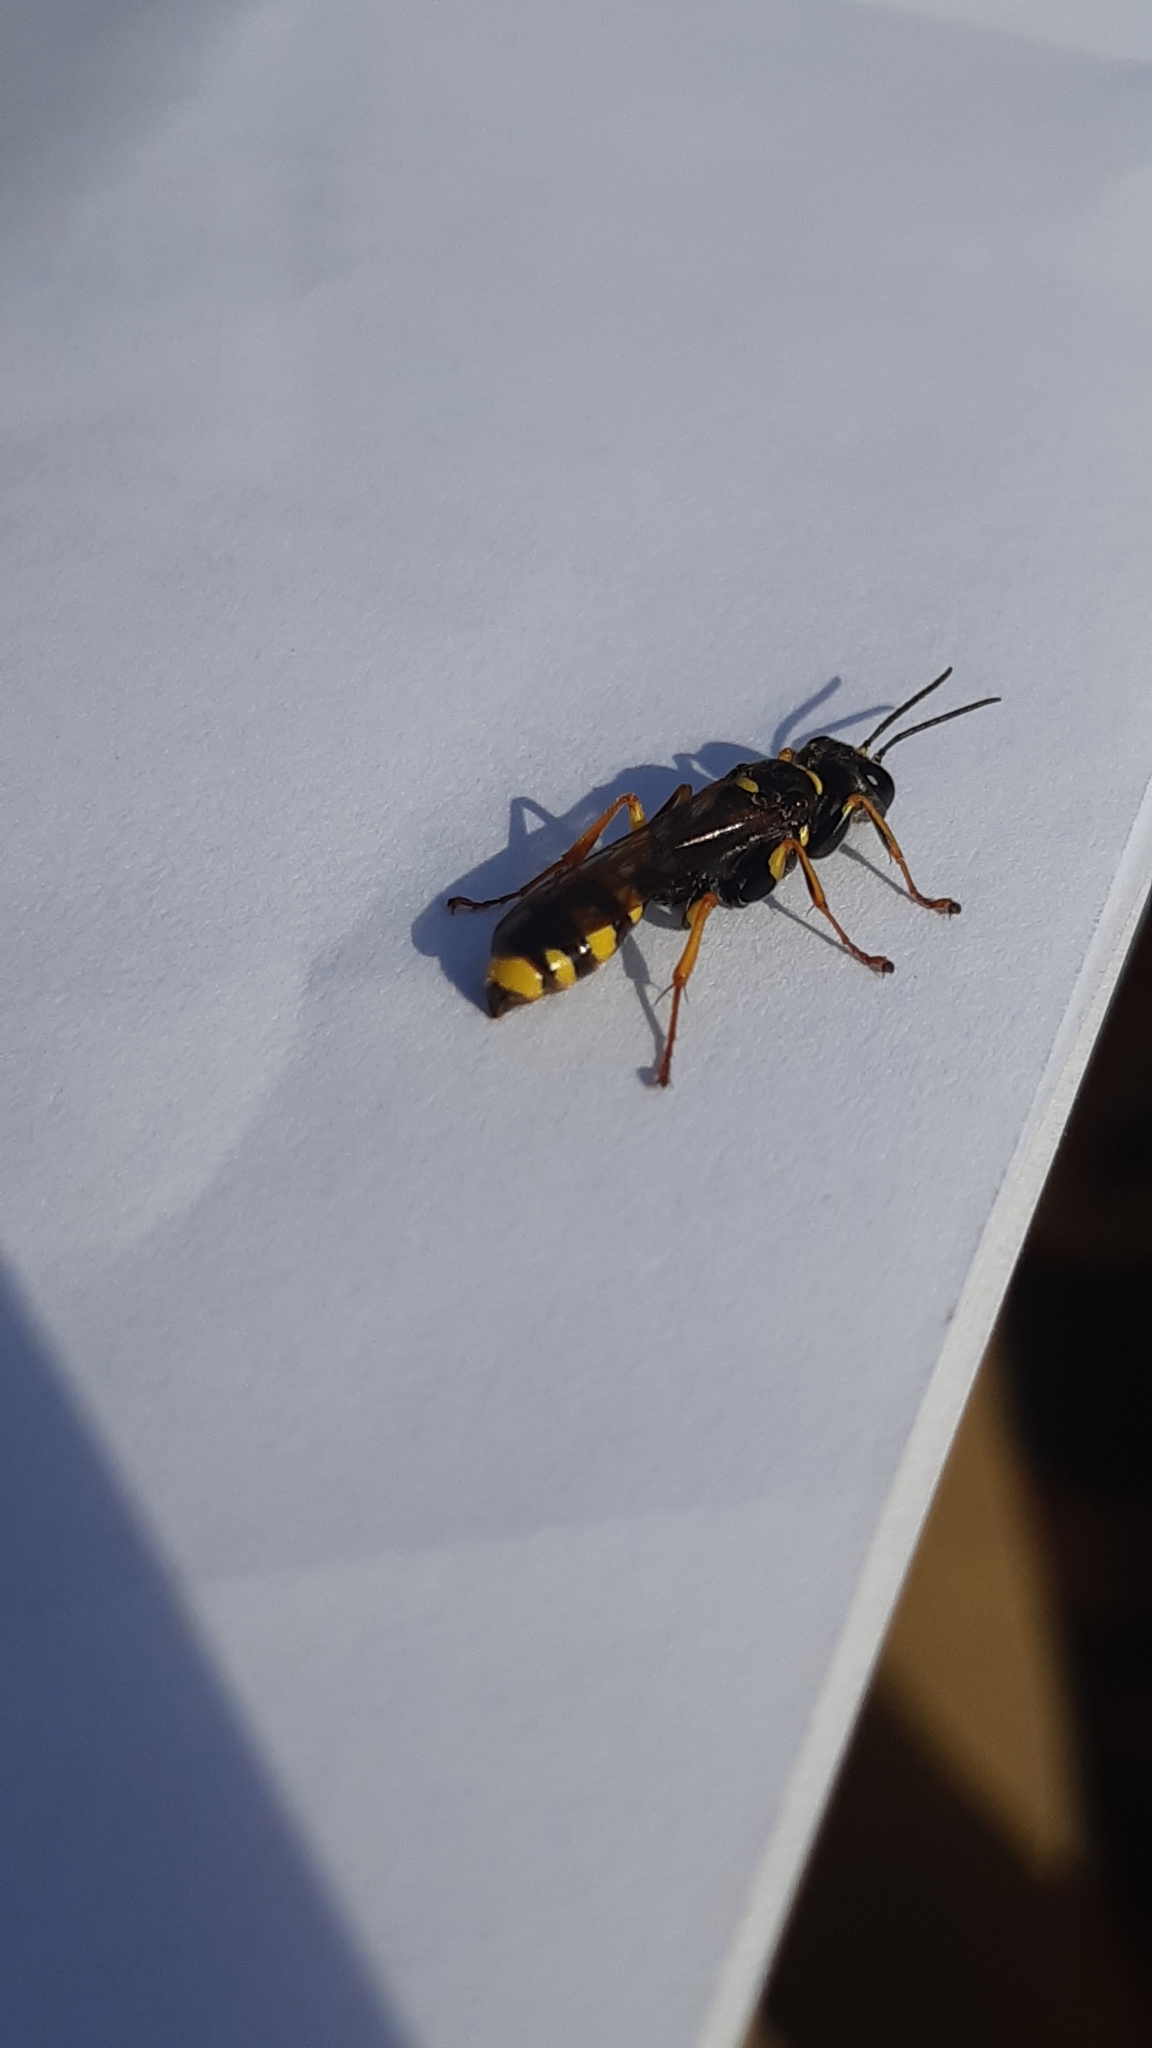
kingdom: Animalia
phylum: Arthropoda
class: Insecta
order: Hymenoptera
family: Crabronidae
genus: Mellinus
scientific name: Mellinus arvensis
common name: Field digger wasp
